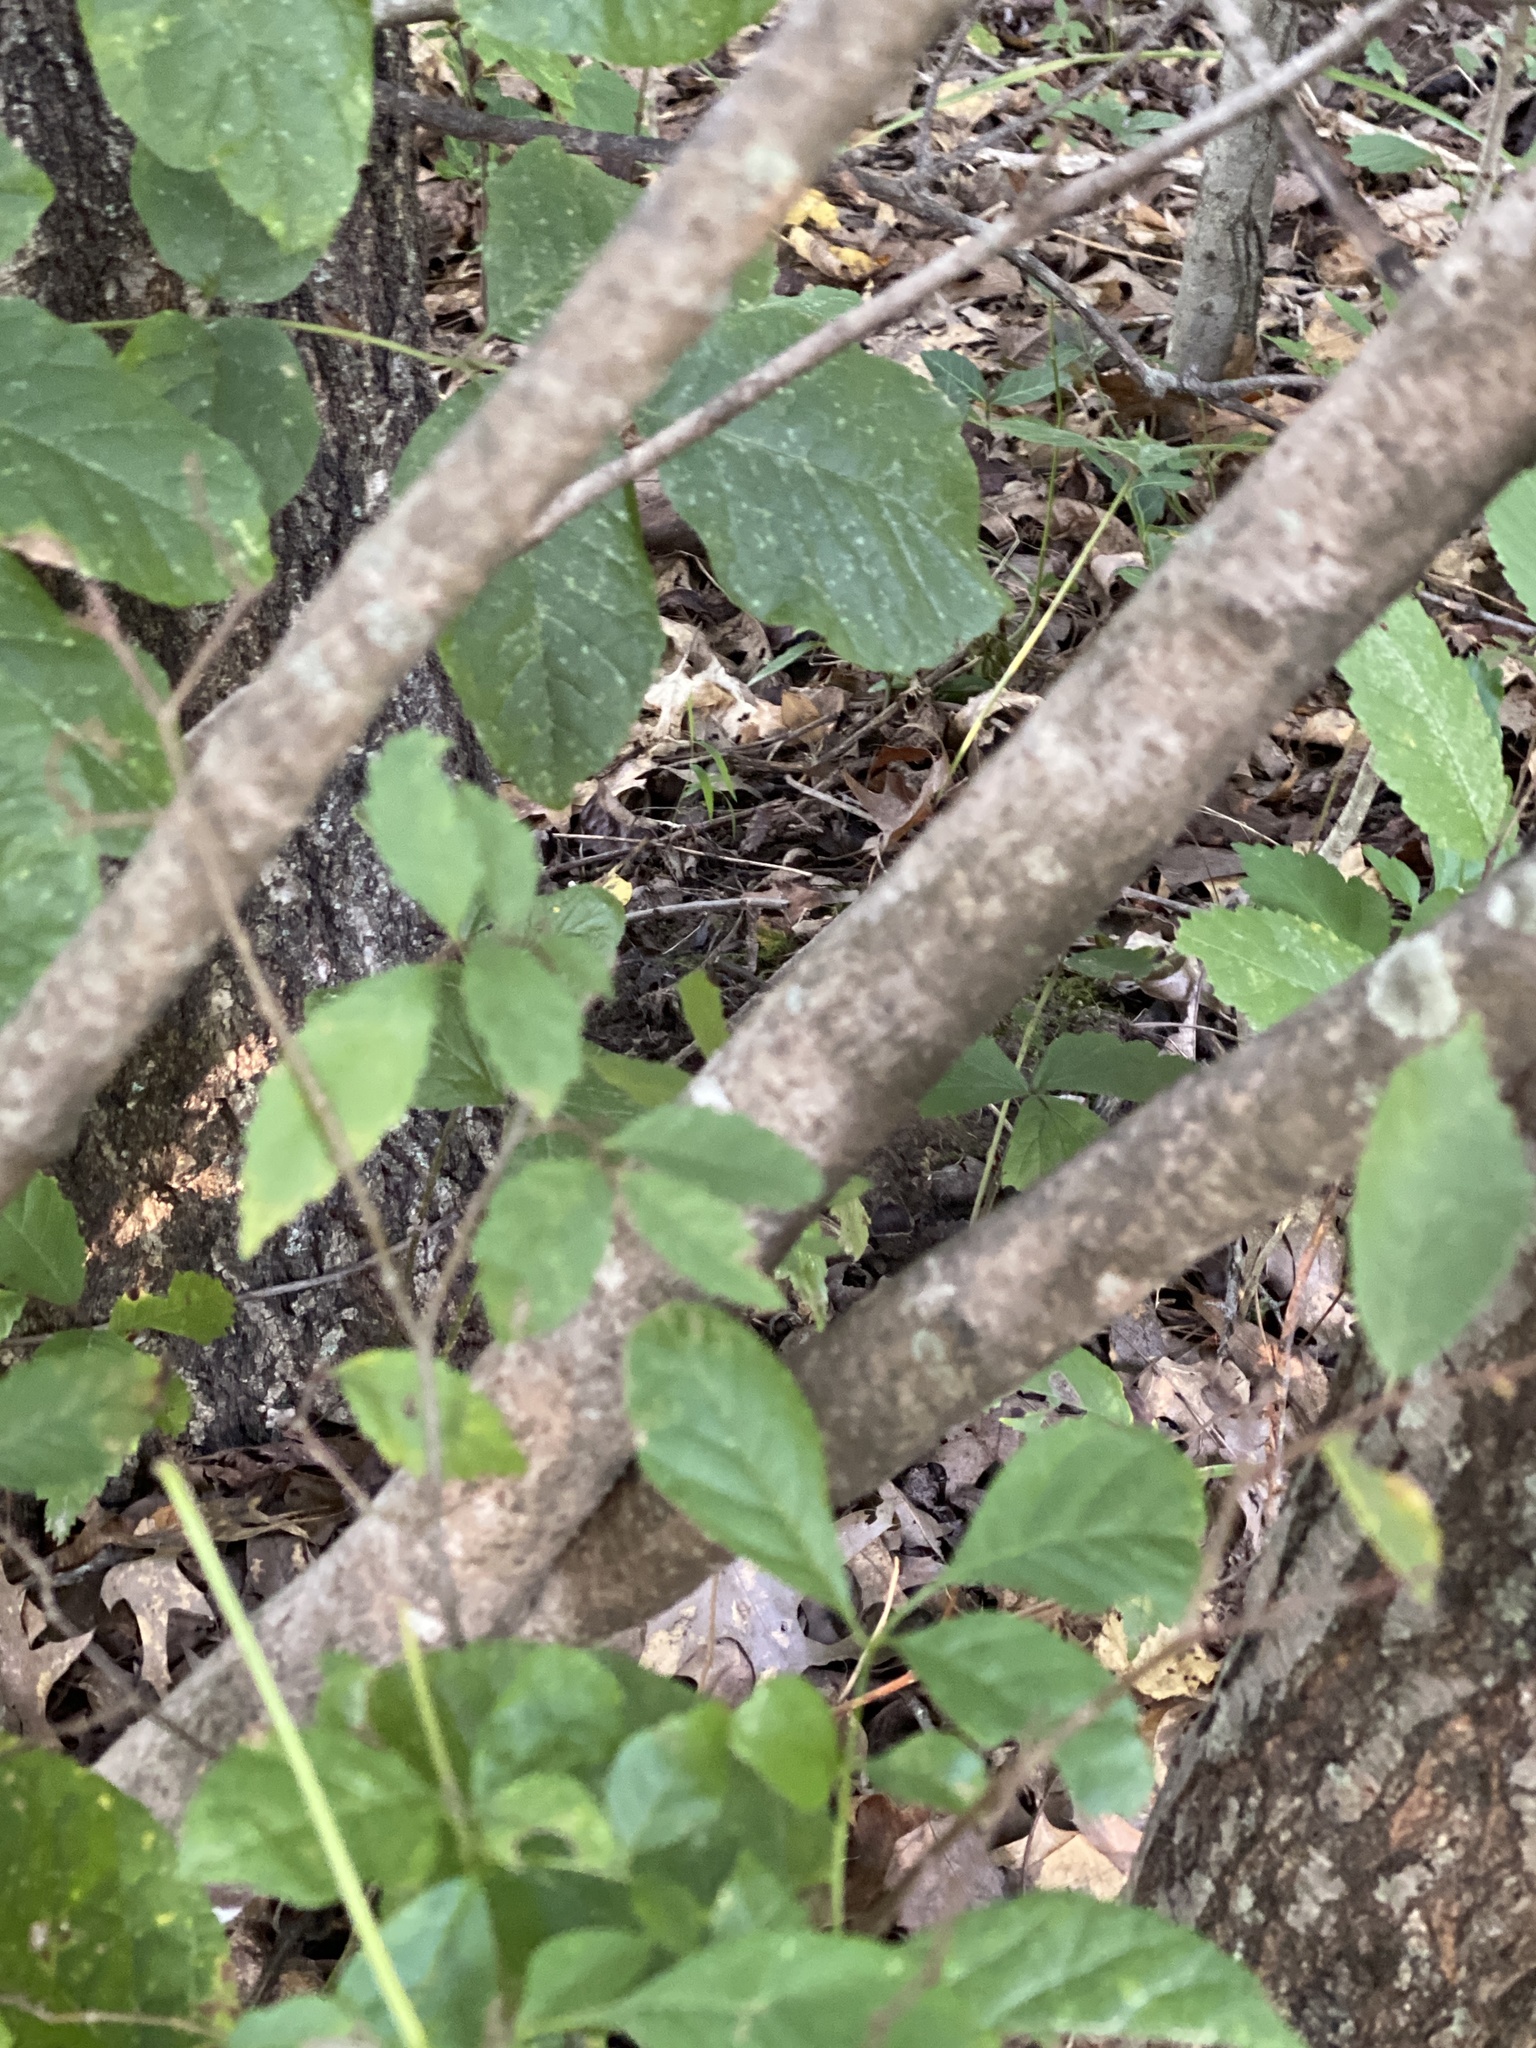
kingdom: Plantae
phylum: Tracheophyta
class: Magnoliopsida
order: Saxifragales
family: Hamamelidaceae
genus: Hamamelis
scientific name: Hamamelis virginiana
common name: Witch-hazel
